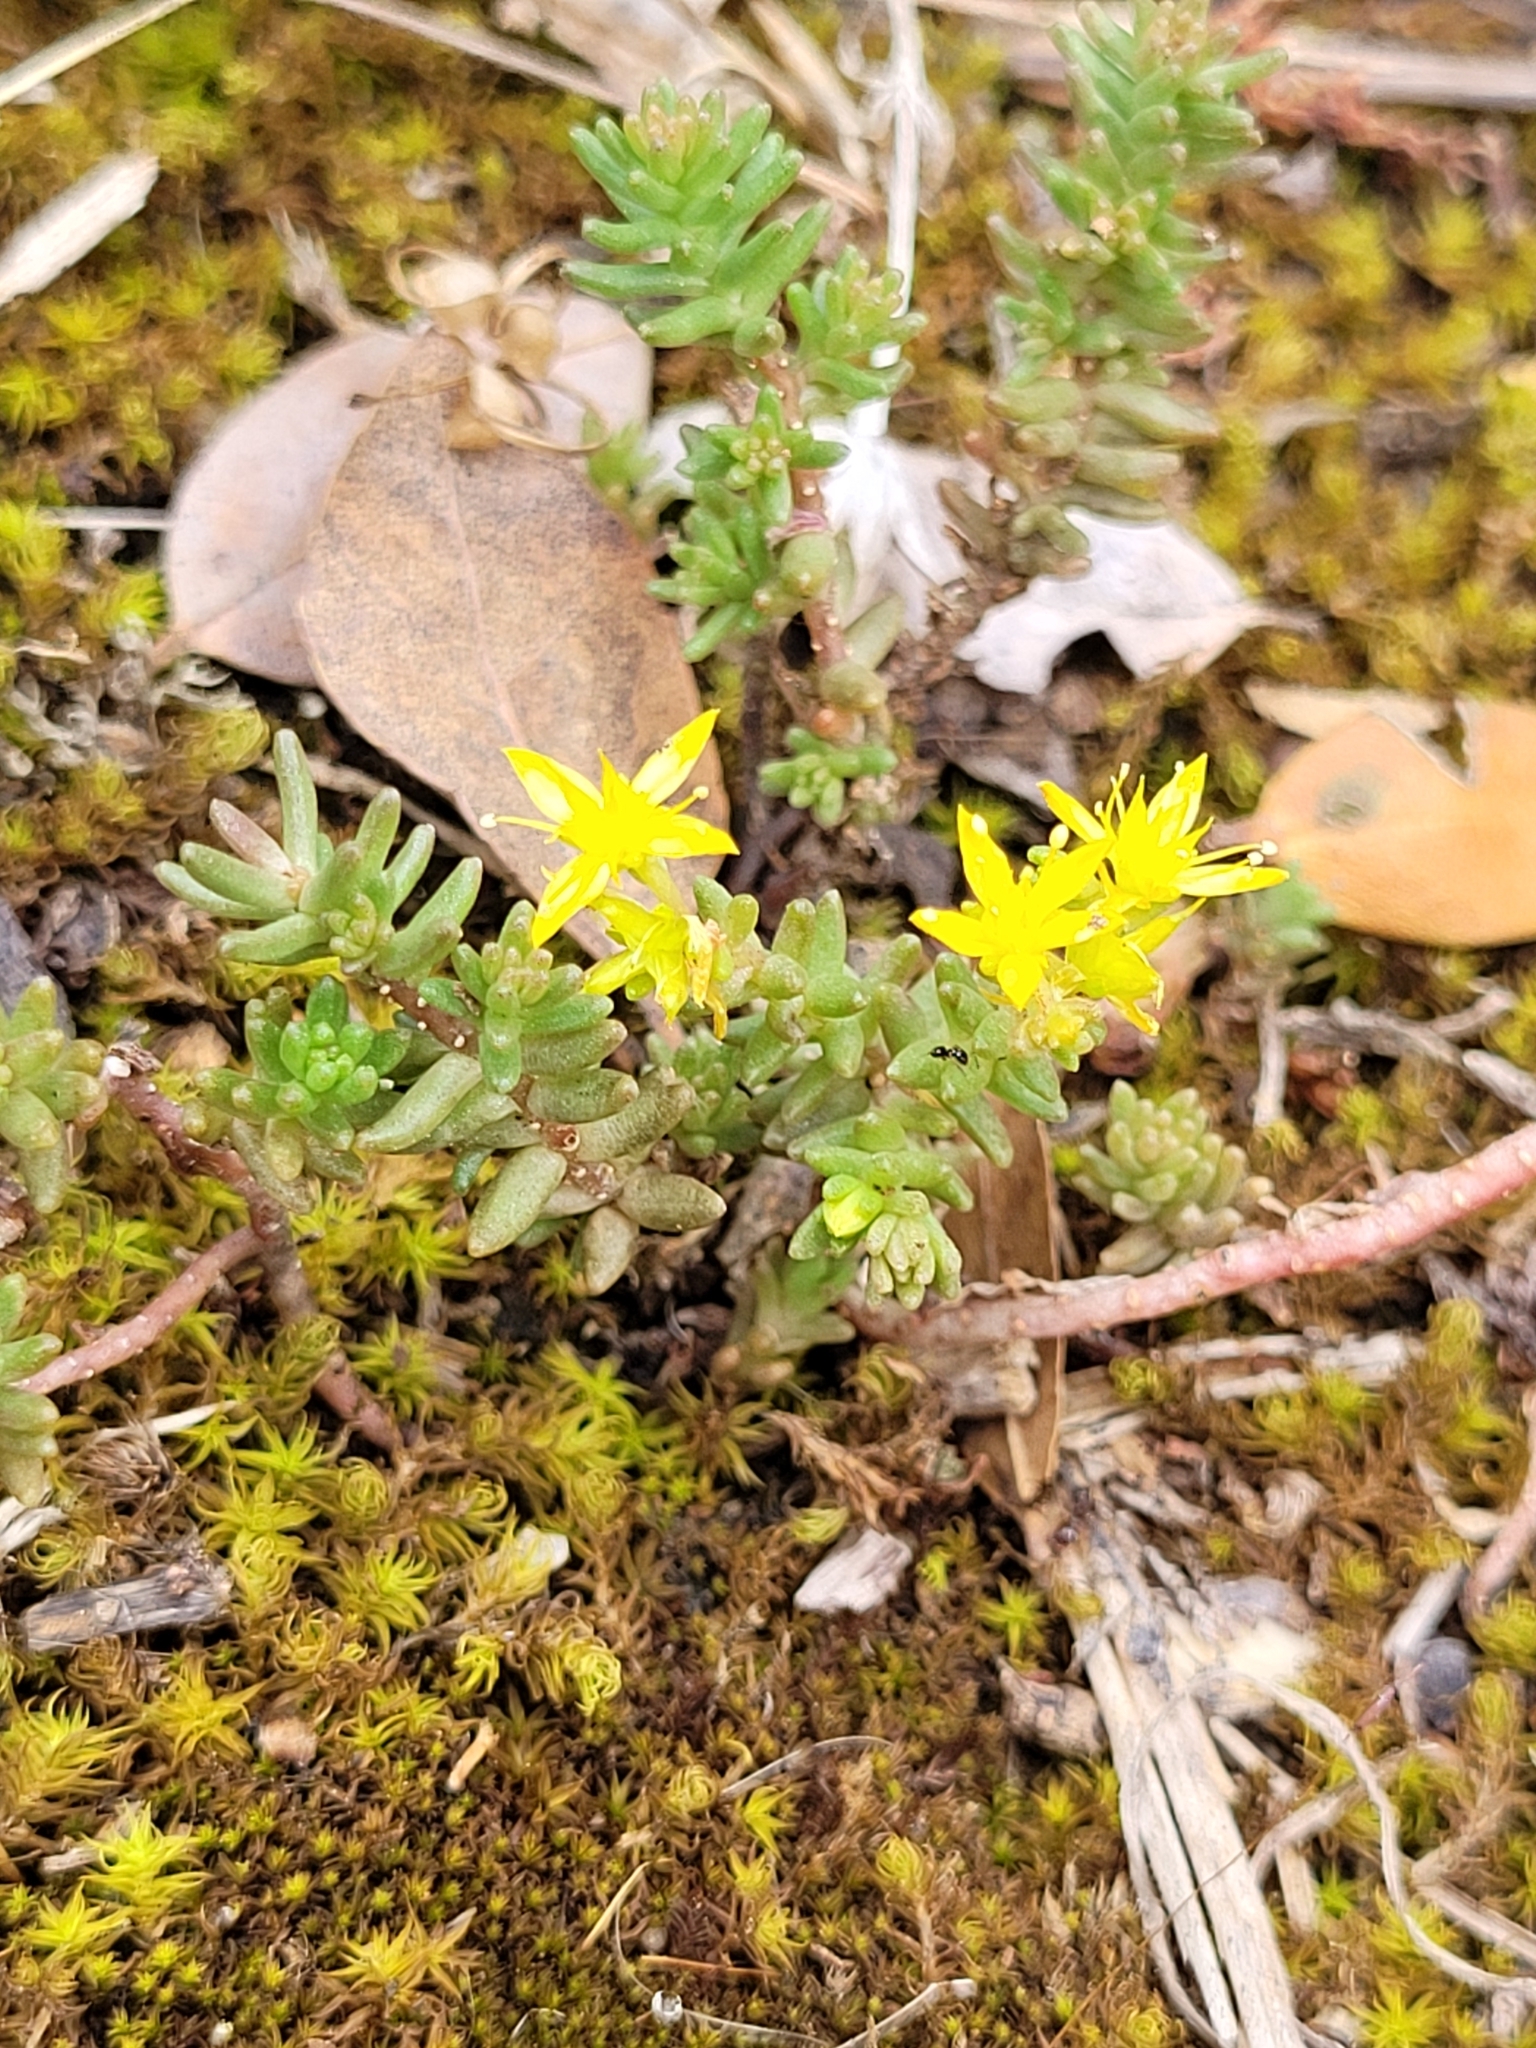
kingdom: Plantae
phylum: Tracheophyta
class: Magnoliopsida
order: Saxifragales
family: Crassulaceae
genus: Sedum
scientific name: Sedum sexangulare
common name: Tasteless stonecrop
